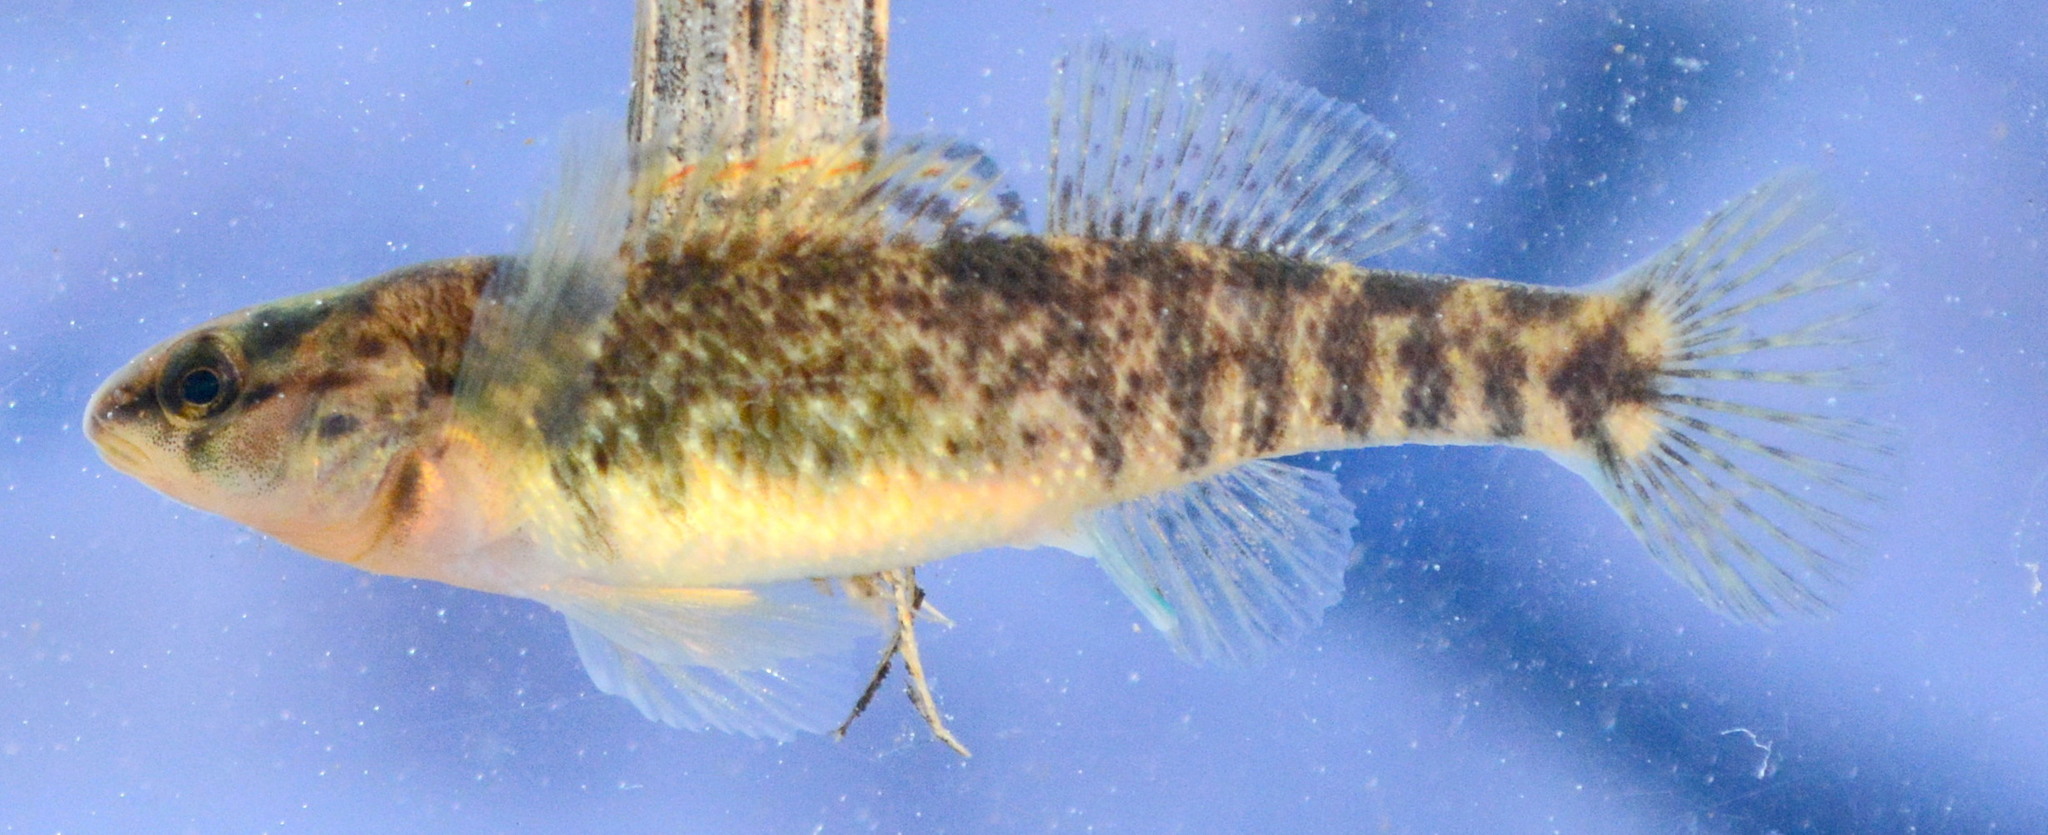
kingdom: Animalia
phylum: Chordata
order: Perciformes
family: Percidae
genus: Etheostoma
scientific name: Etheostoma caeruleum
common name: Rainbow darter
